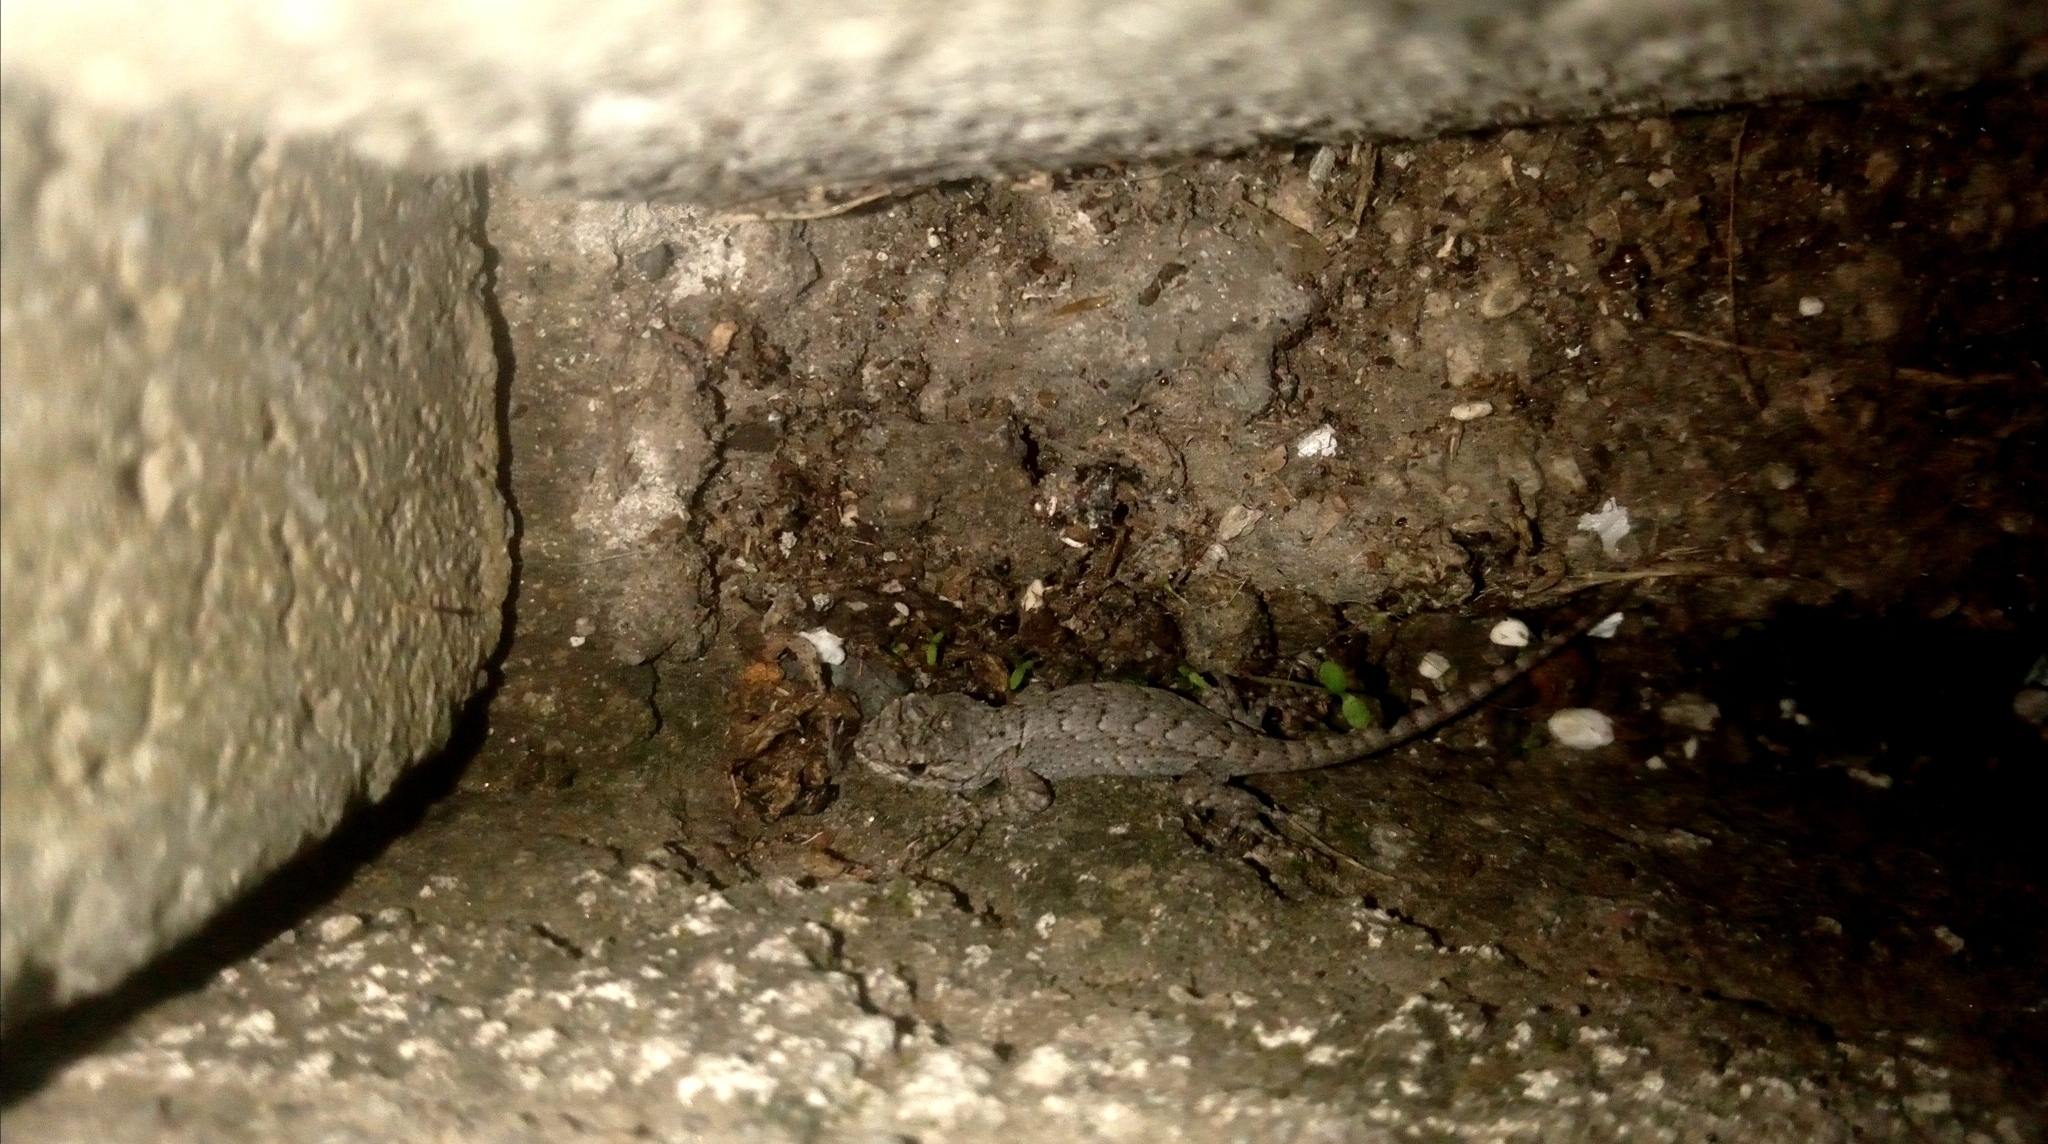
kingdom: Animalia
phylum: Chordata
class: Squamata
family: Phrynosomatidae
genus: Sceloporus
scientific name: Sceloporus grammicus
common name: Mesquite lizard
